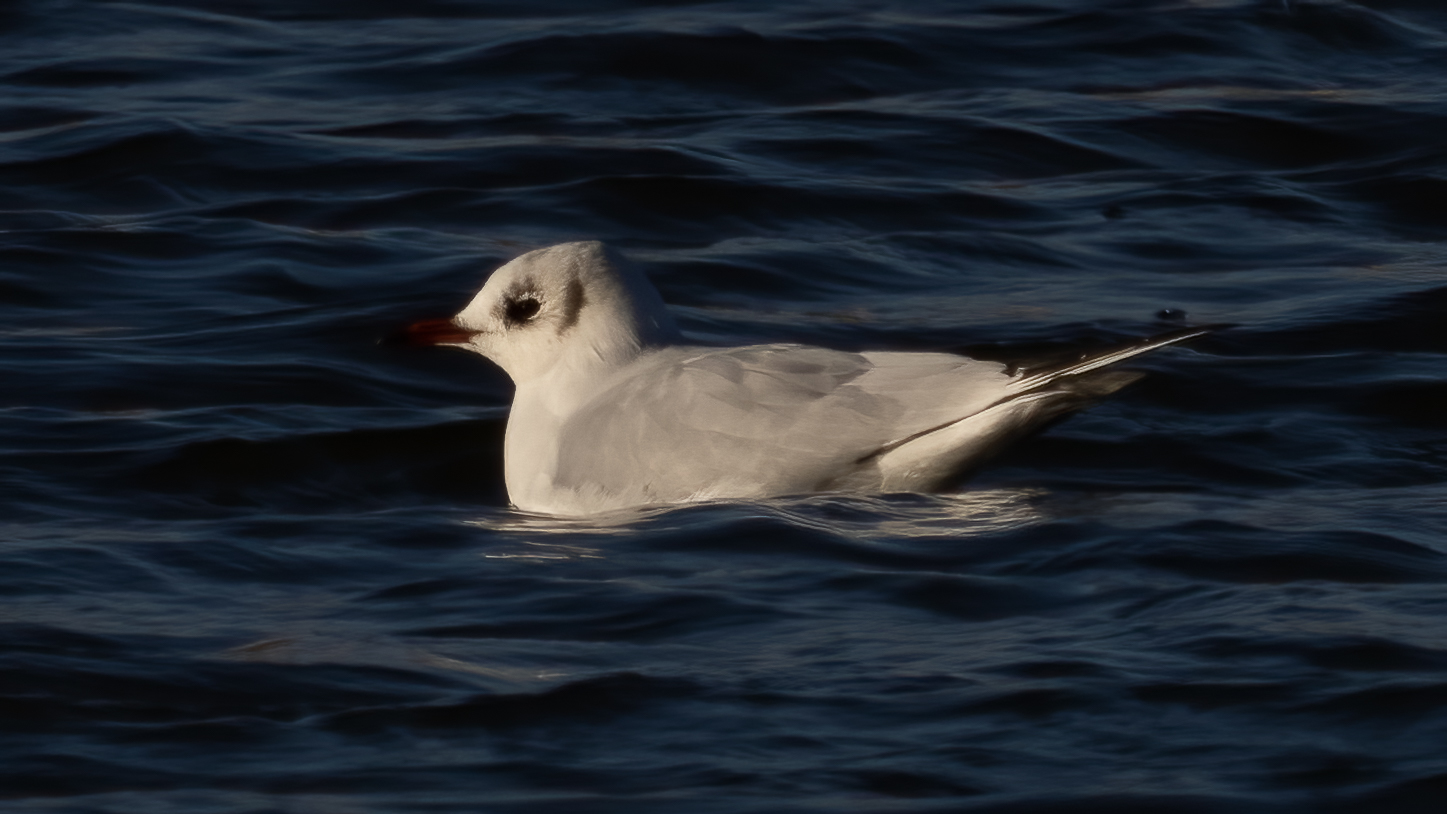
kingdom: Animalia
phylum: Chordata
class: Aves
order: Charadriiformes
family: Laridae
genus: Chroicocephalus
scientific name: Chroicocephalus ridibundus
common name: Black-headed gull
